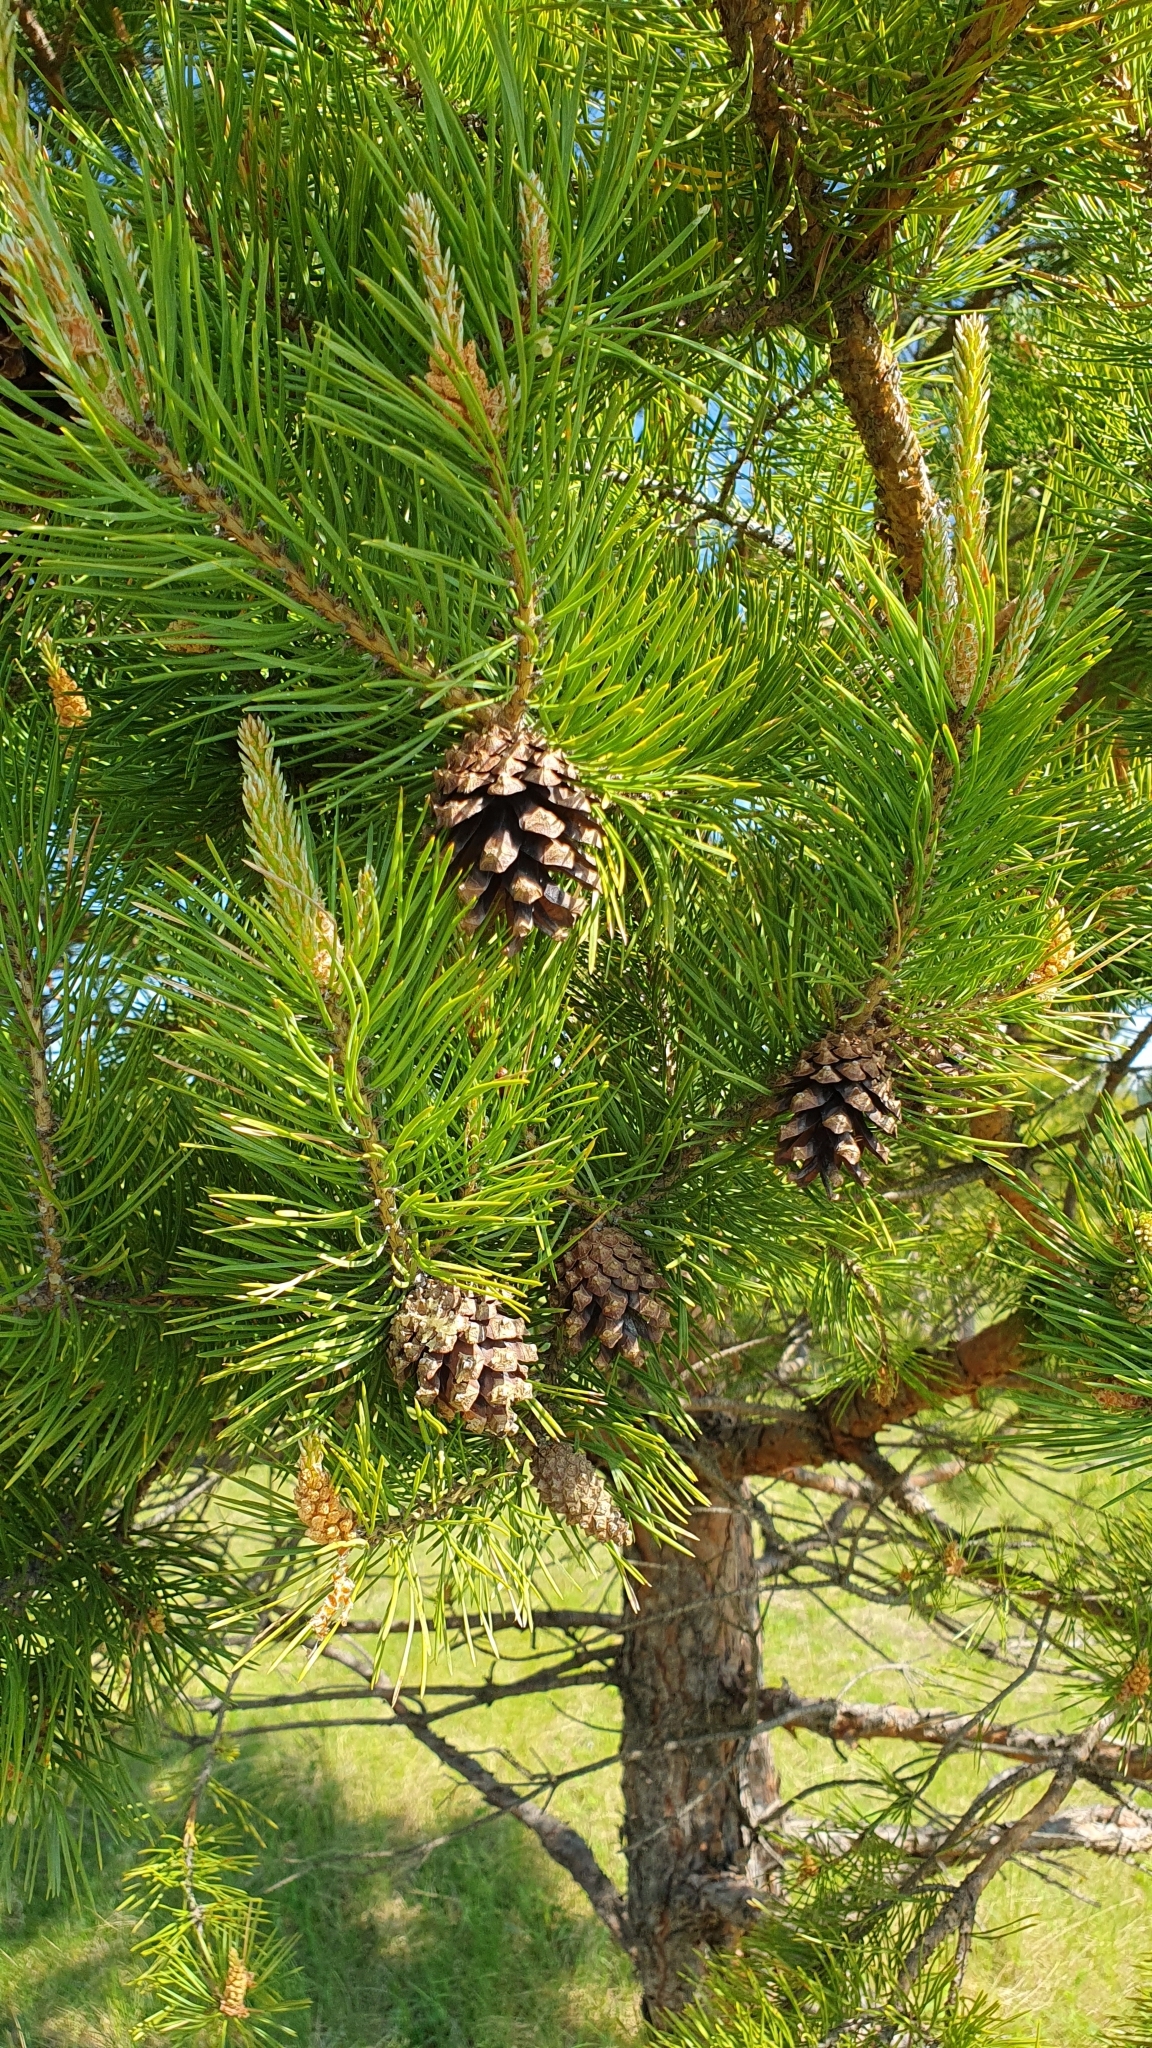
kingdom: Plantae
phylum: Tracheophyta
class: Pinopsida
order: Pinales
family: Pinaceae
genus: Pinus
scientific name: Pinus sylvestris
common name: Scots pine
